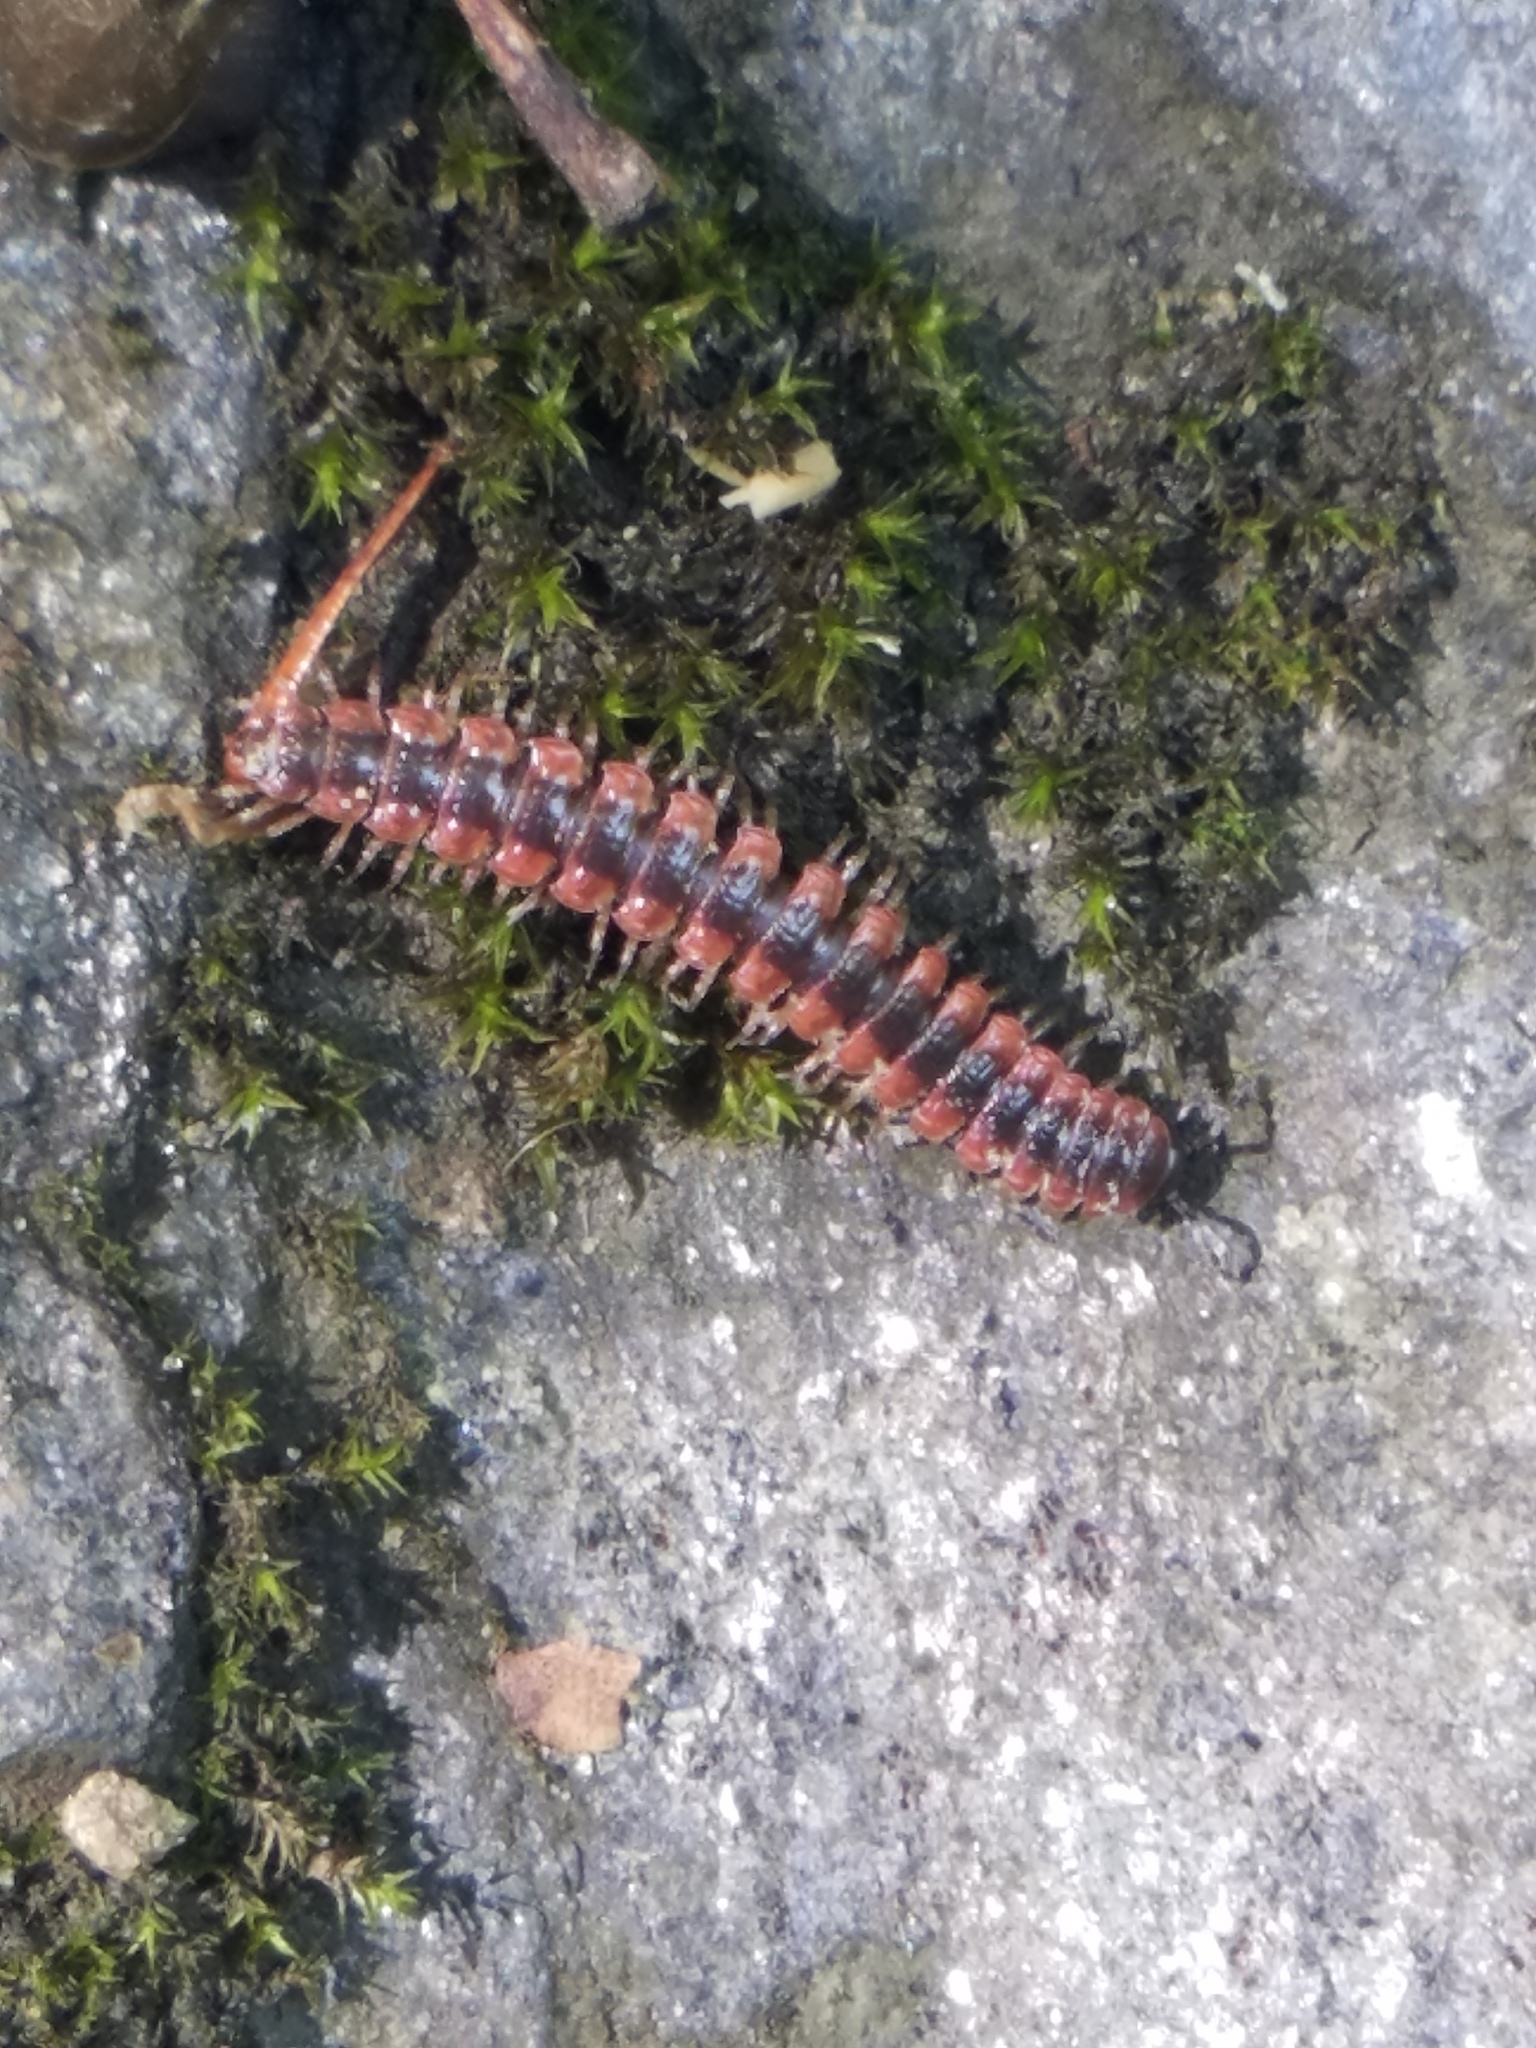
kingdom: Animalia
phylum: Arthropoda
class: Diplopoda
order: Polydesmida
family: Polydesmidae
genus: Pseudopolydesmus
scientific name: Pseudopolydesmus canadensis
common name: Canadian flat-back millipede
